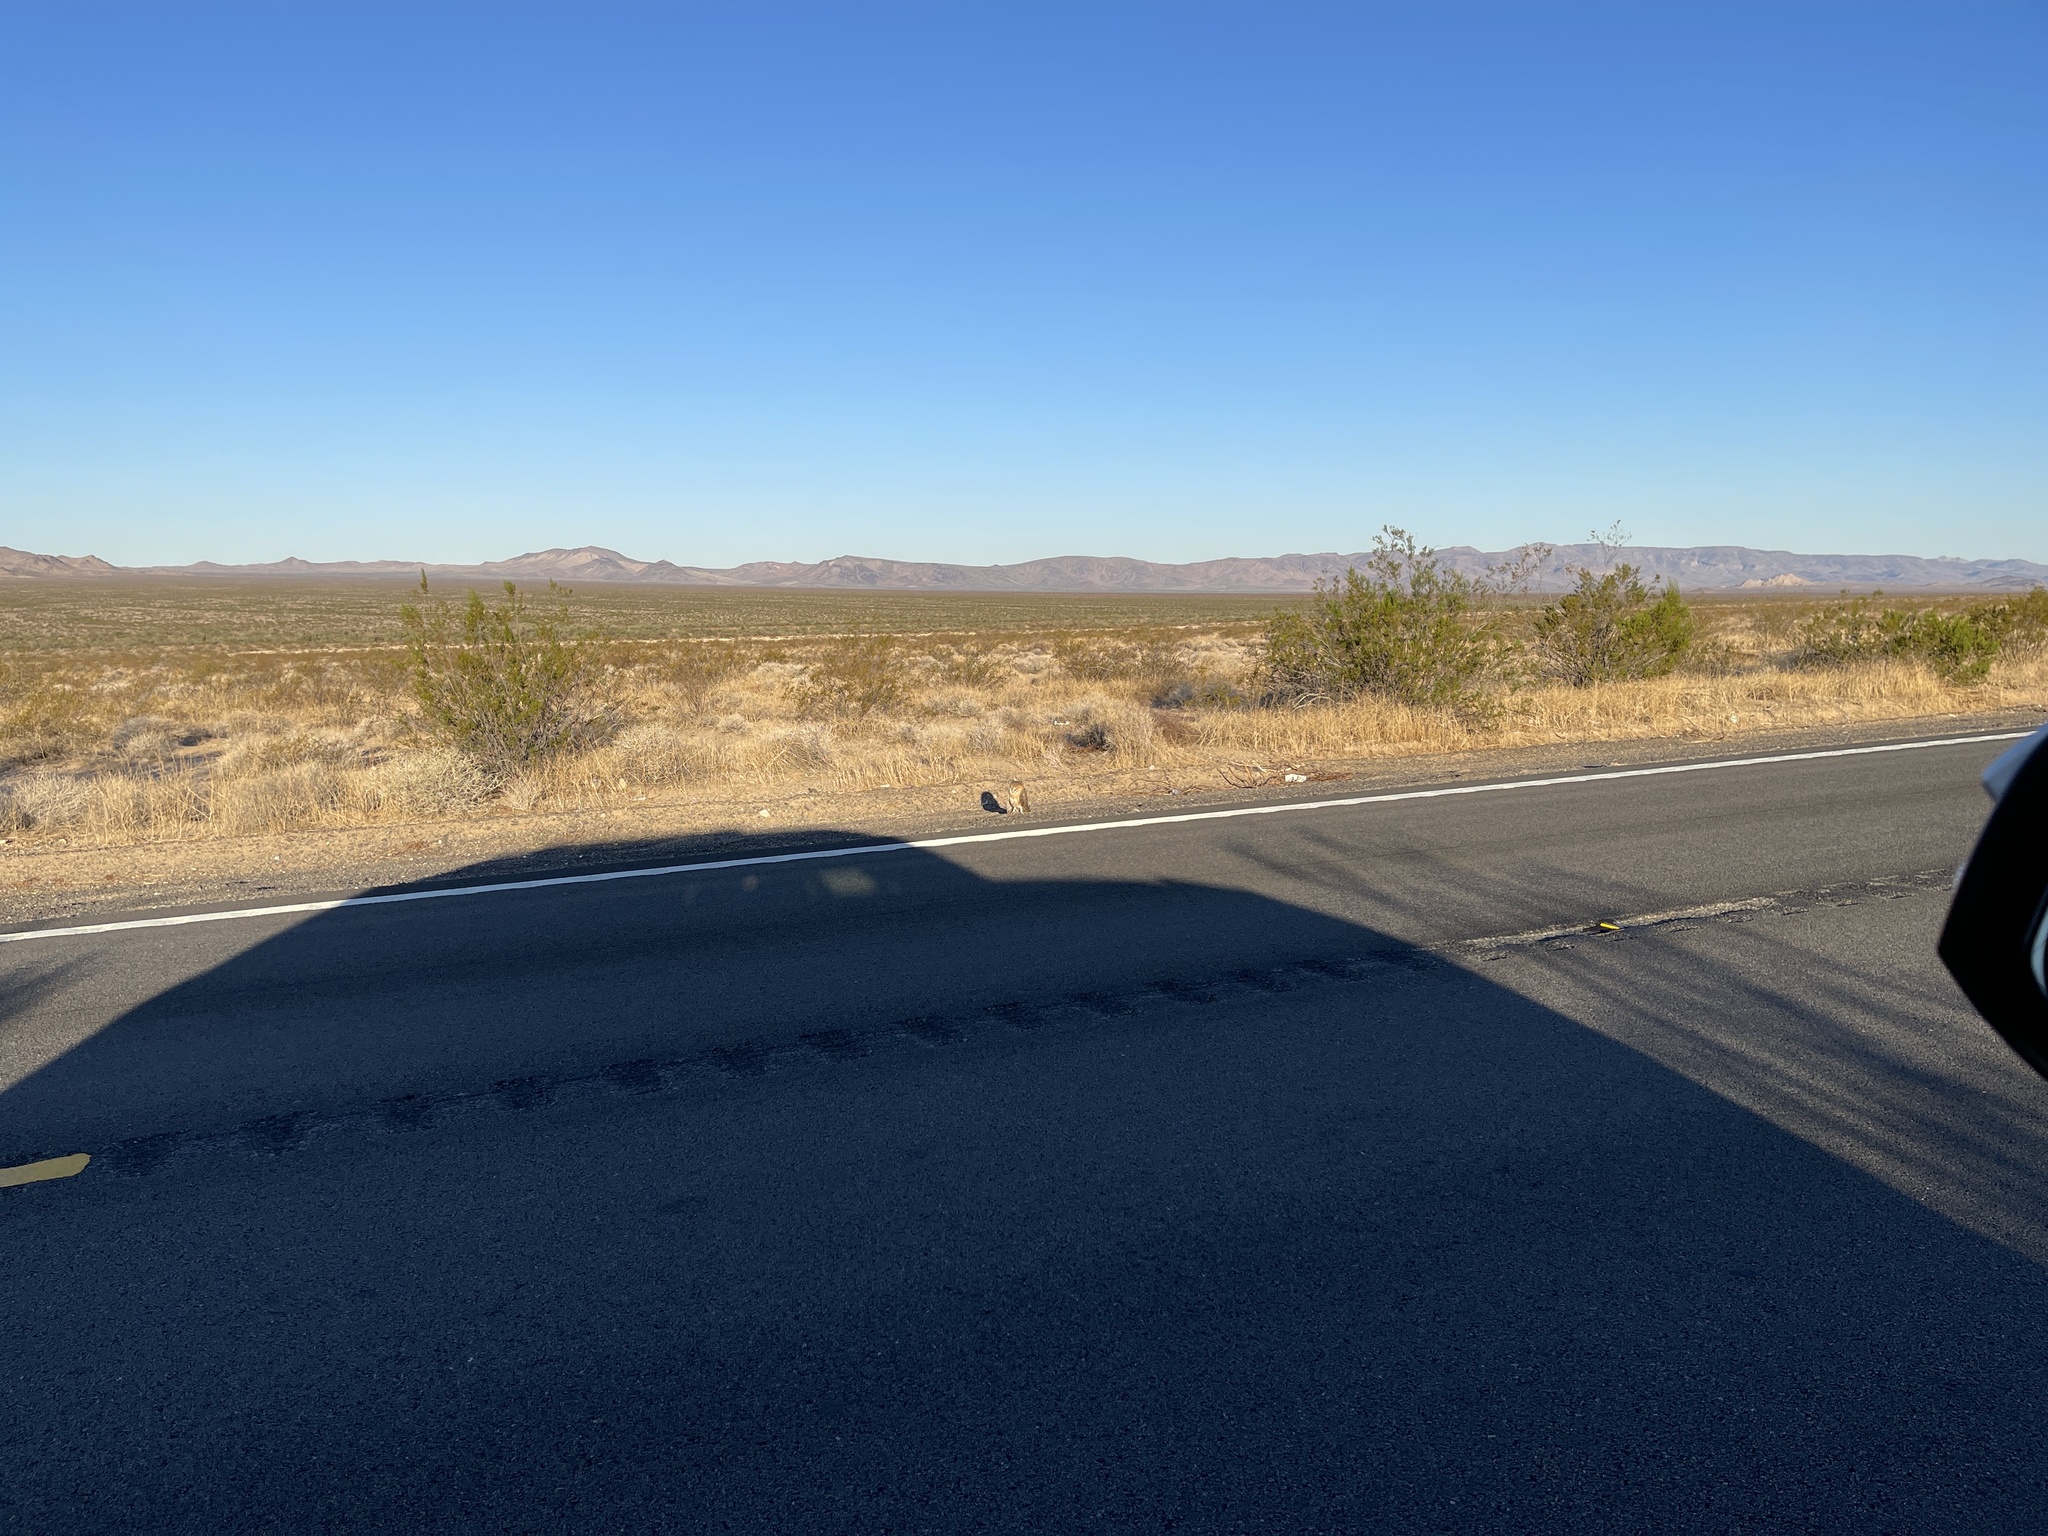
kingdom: Animalia
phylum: Chordata
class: Aves
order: Strigiformes
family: Tytonidae
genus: Tyto
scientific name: Tyto alba
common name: Barn owl
